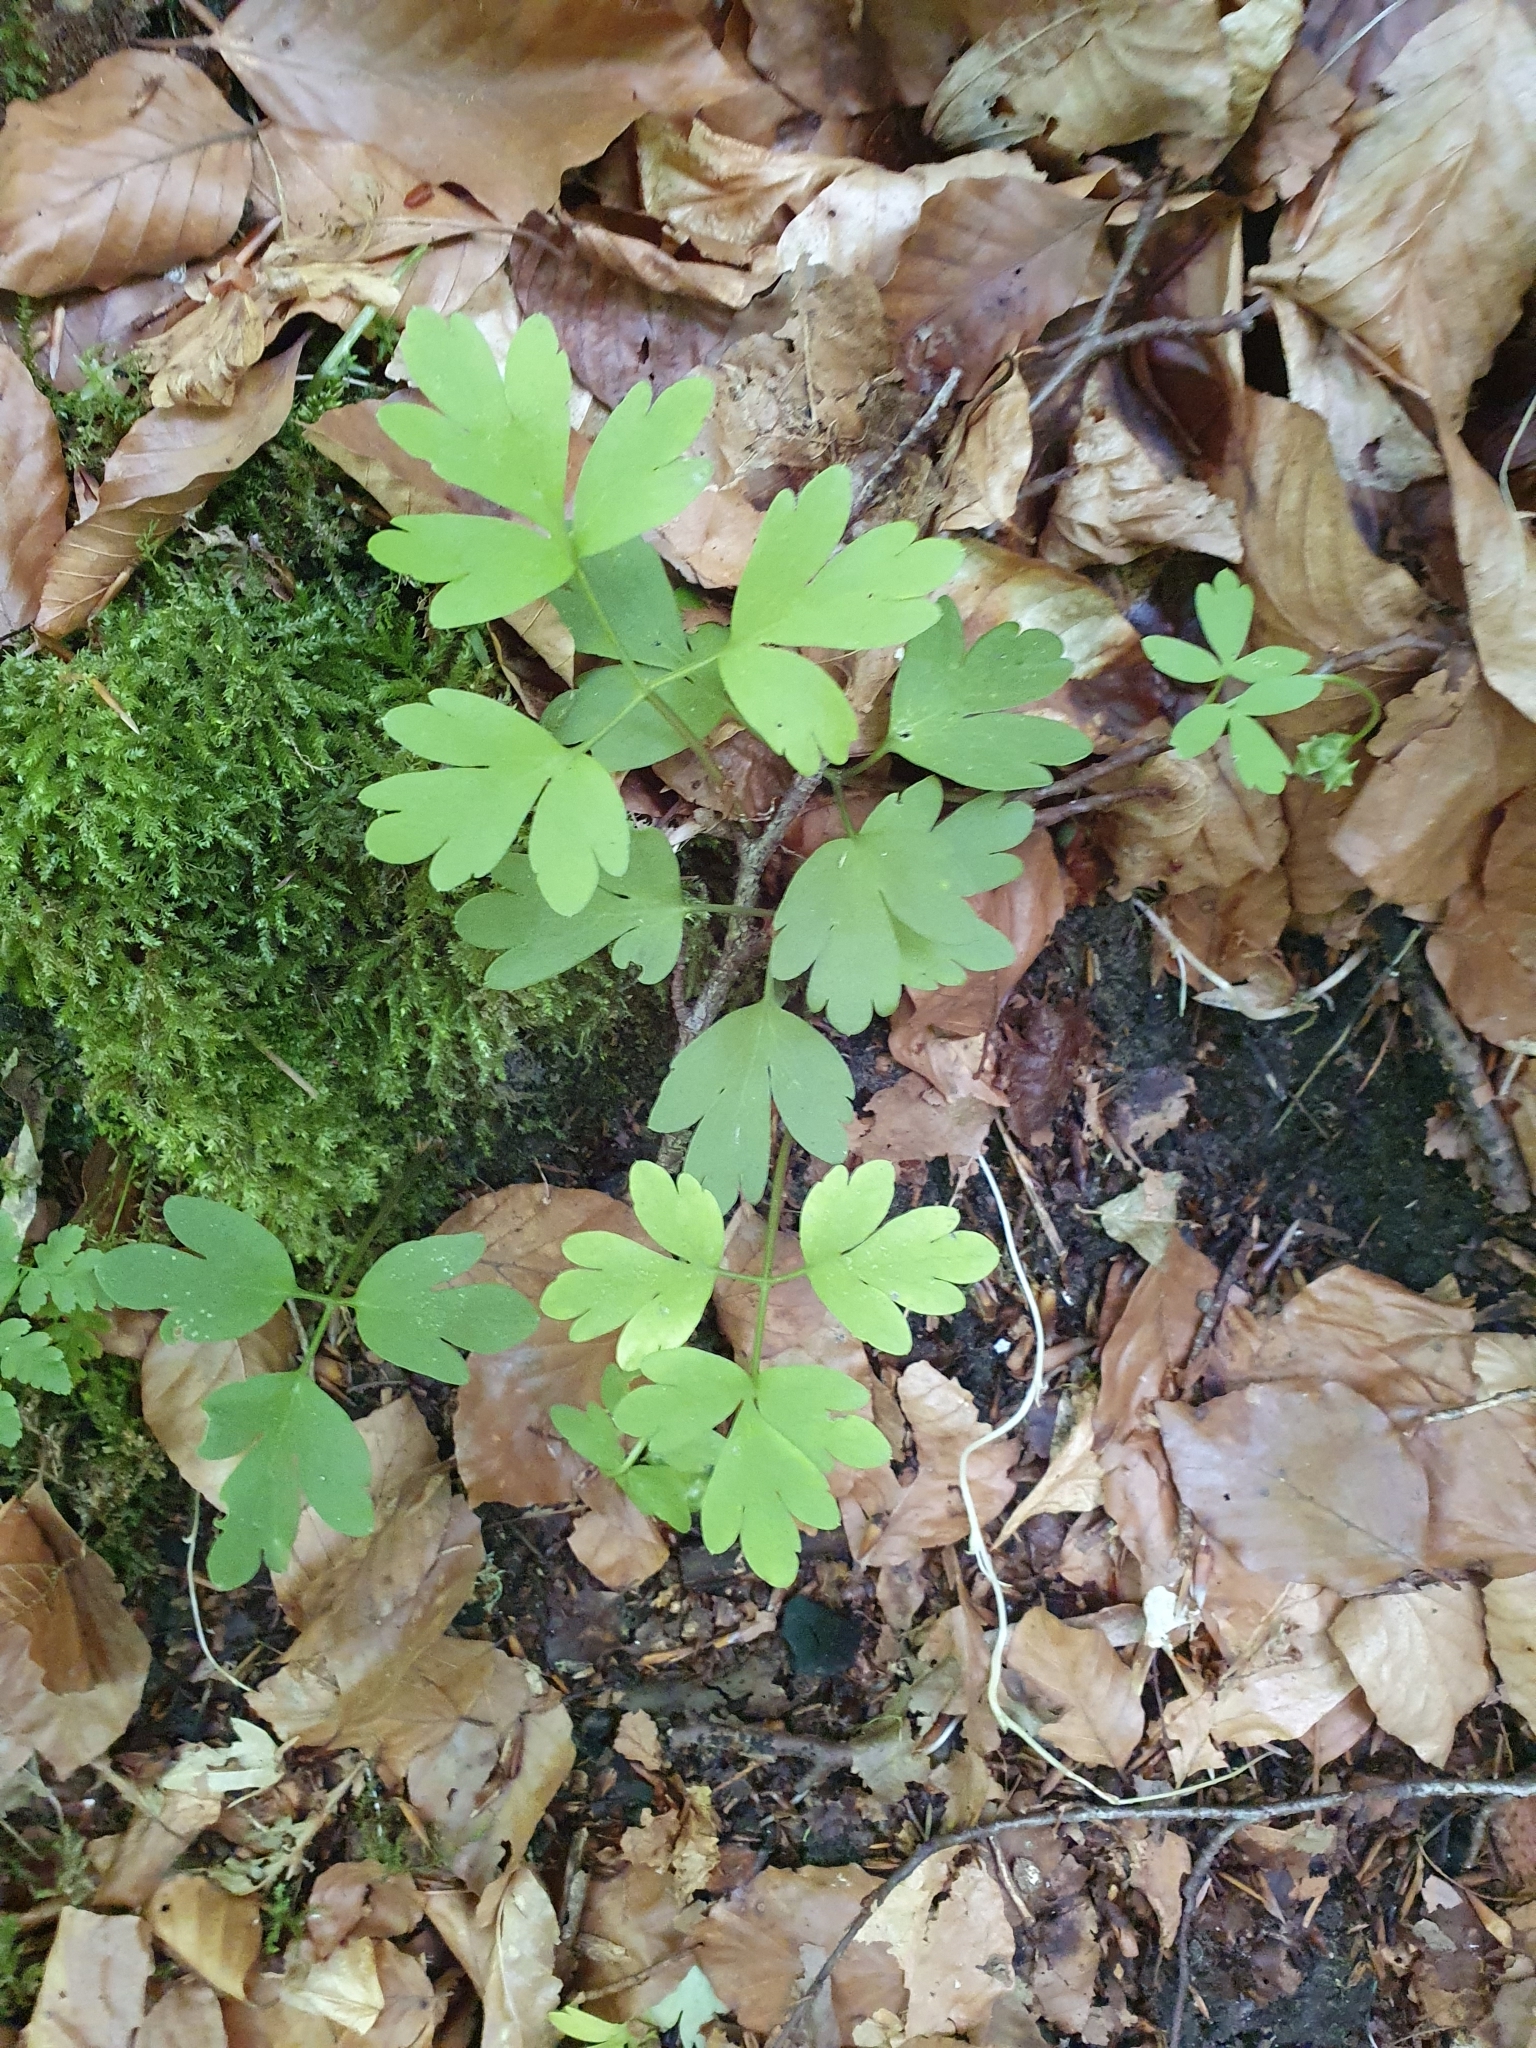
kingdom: Plantae
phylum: Tracheophyta
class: Magnoliopsida
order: Dipsacales
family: Viburnaceae
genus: Adoxa
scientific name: Adoxa moschatellina
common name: Moschatel
